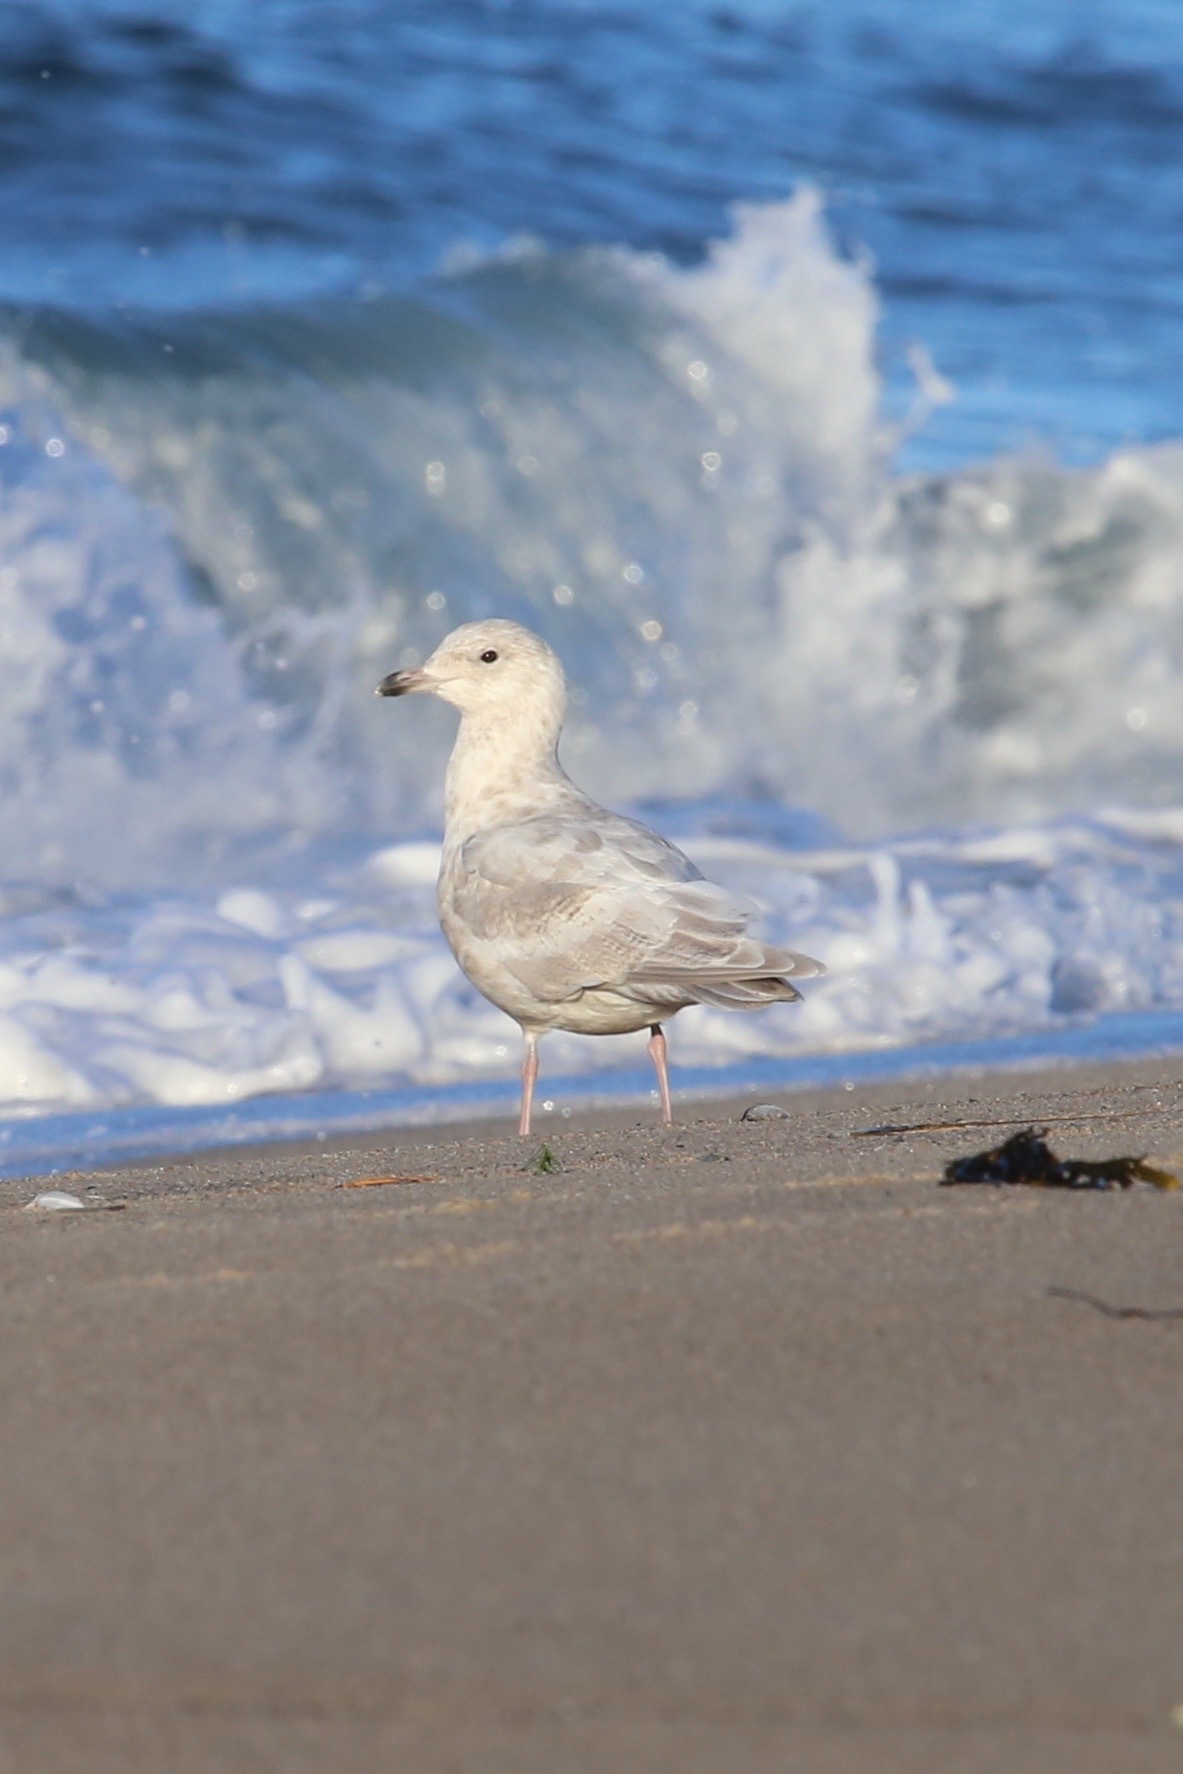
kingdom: Animalia
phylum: Chordata
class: Aves
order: Charadriiformes
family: Laridae
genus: Larus
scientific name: Larus glaucoides
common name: Iceland gull
